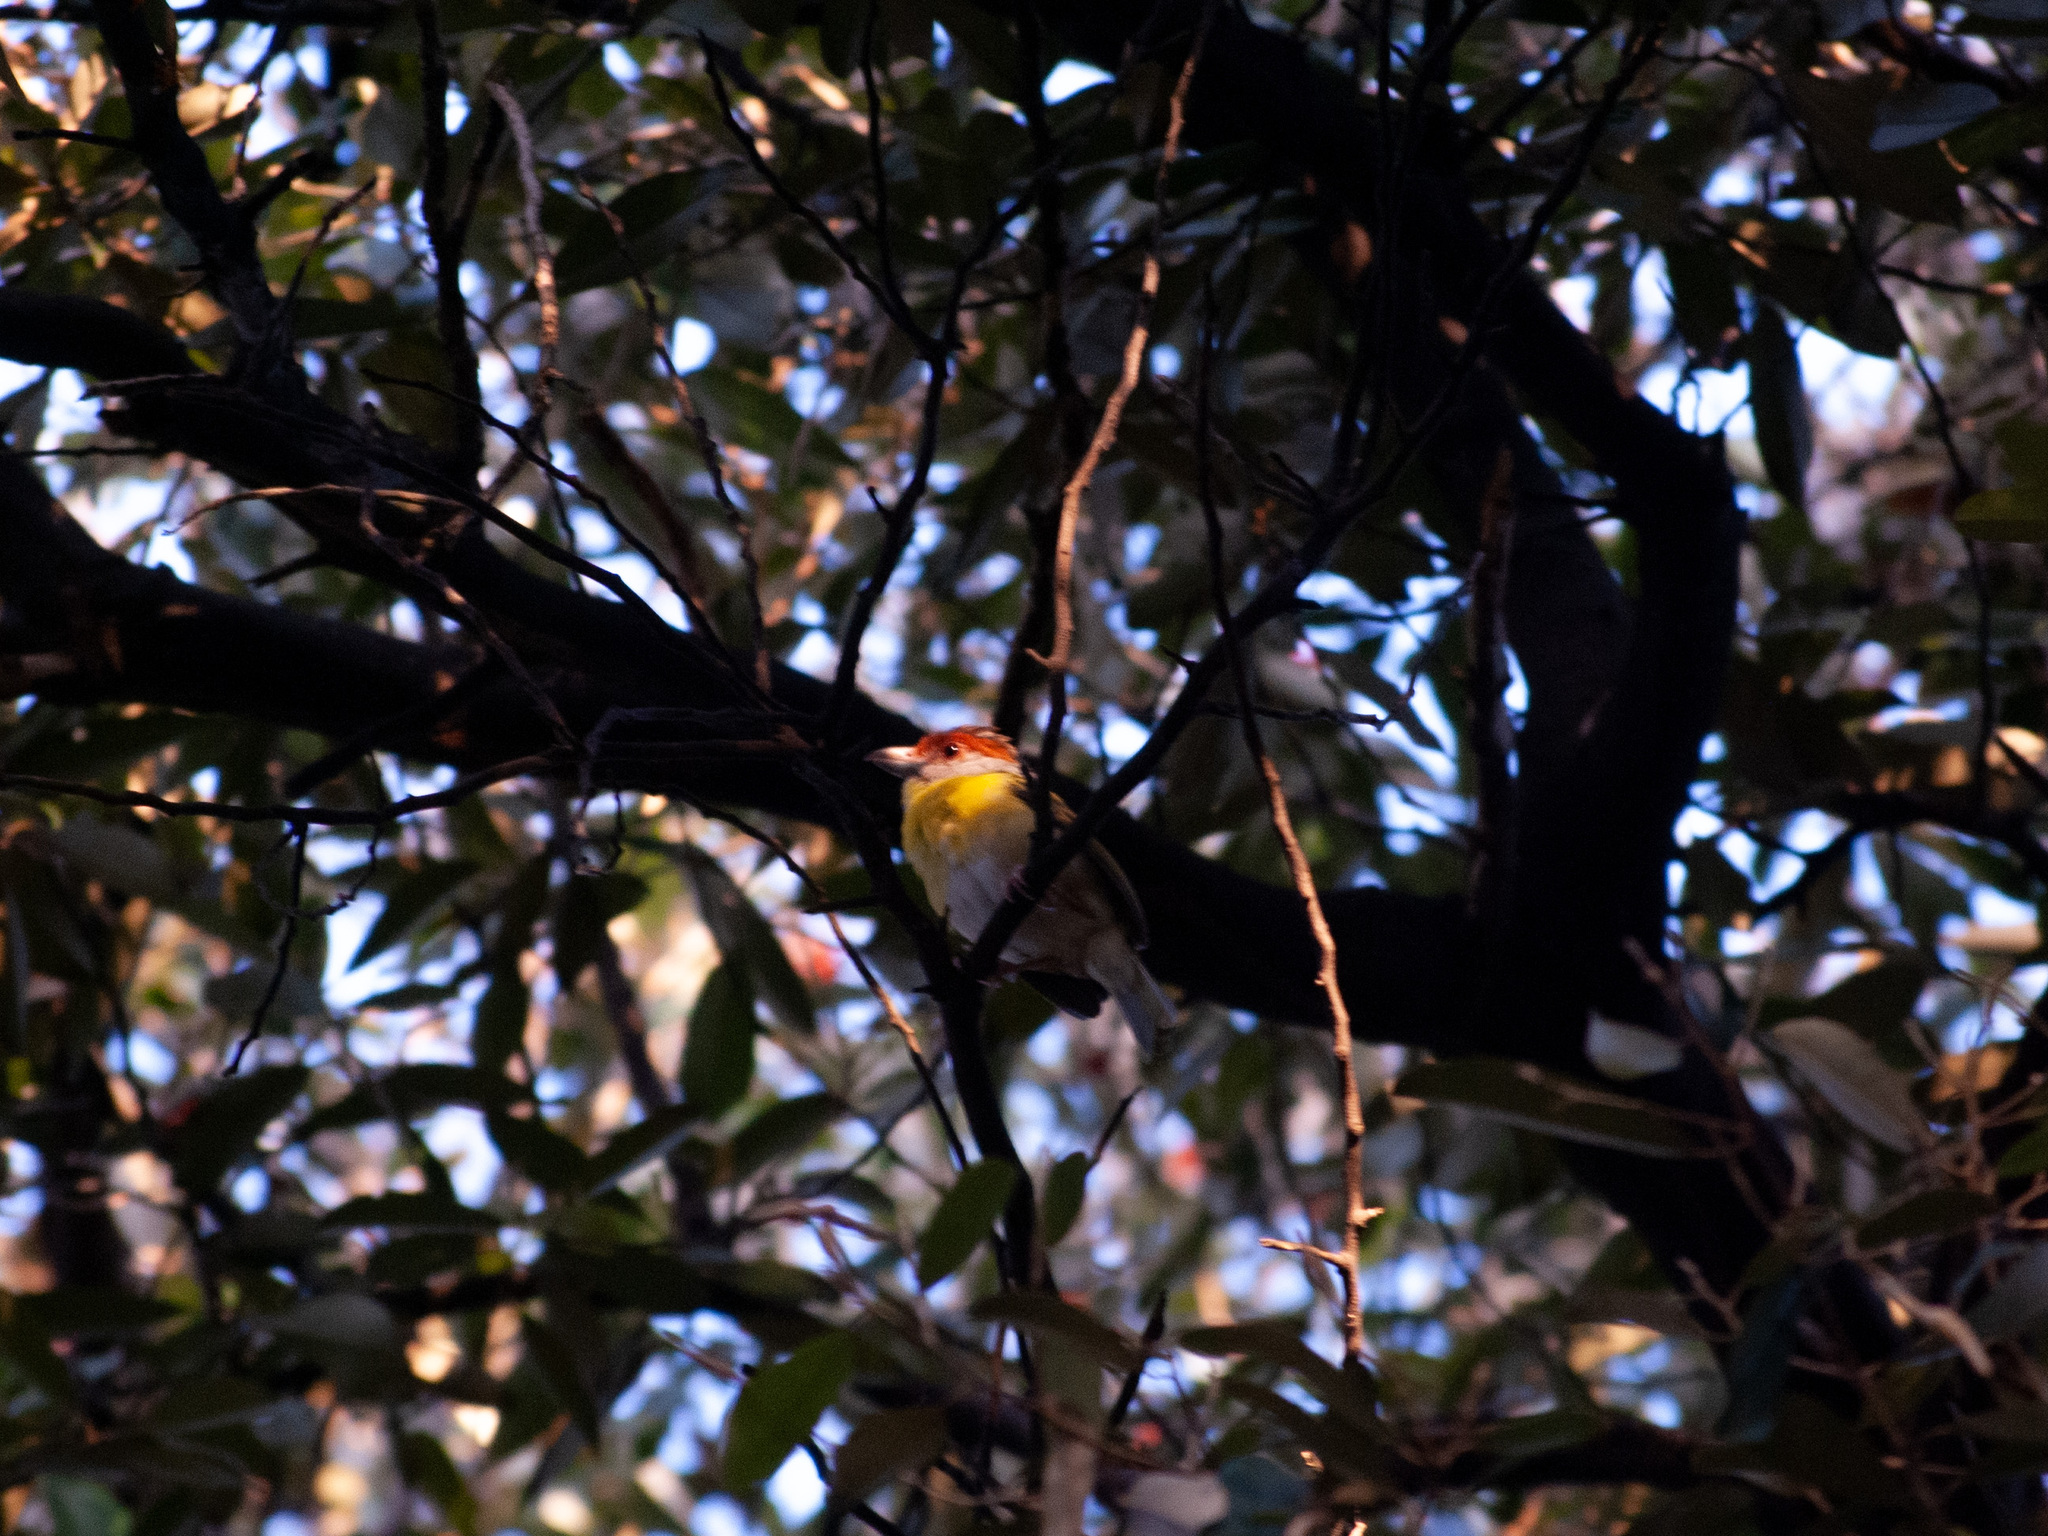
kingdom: Animalia
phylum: Chordata
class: Aves
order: Passeriformes
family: Vireonidae
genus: Cyclarhis
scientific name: Cyclarhis gujanensis
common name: Rufous-browed peppershrike
